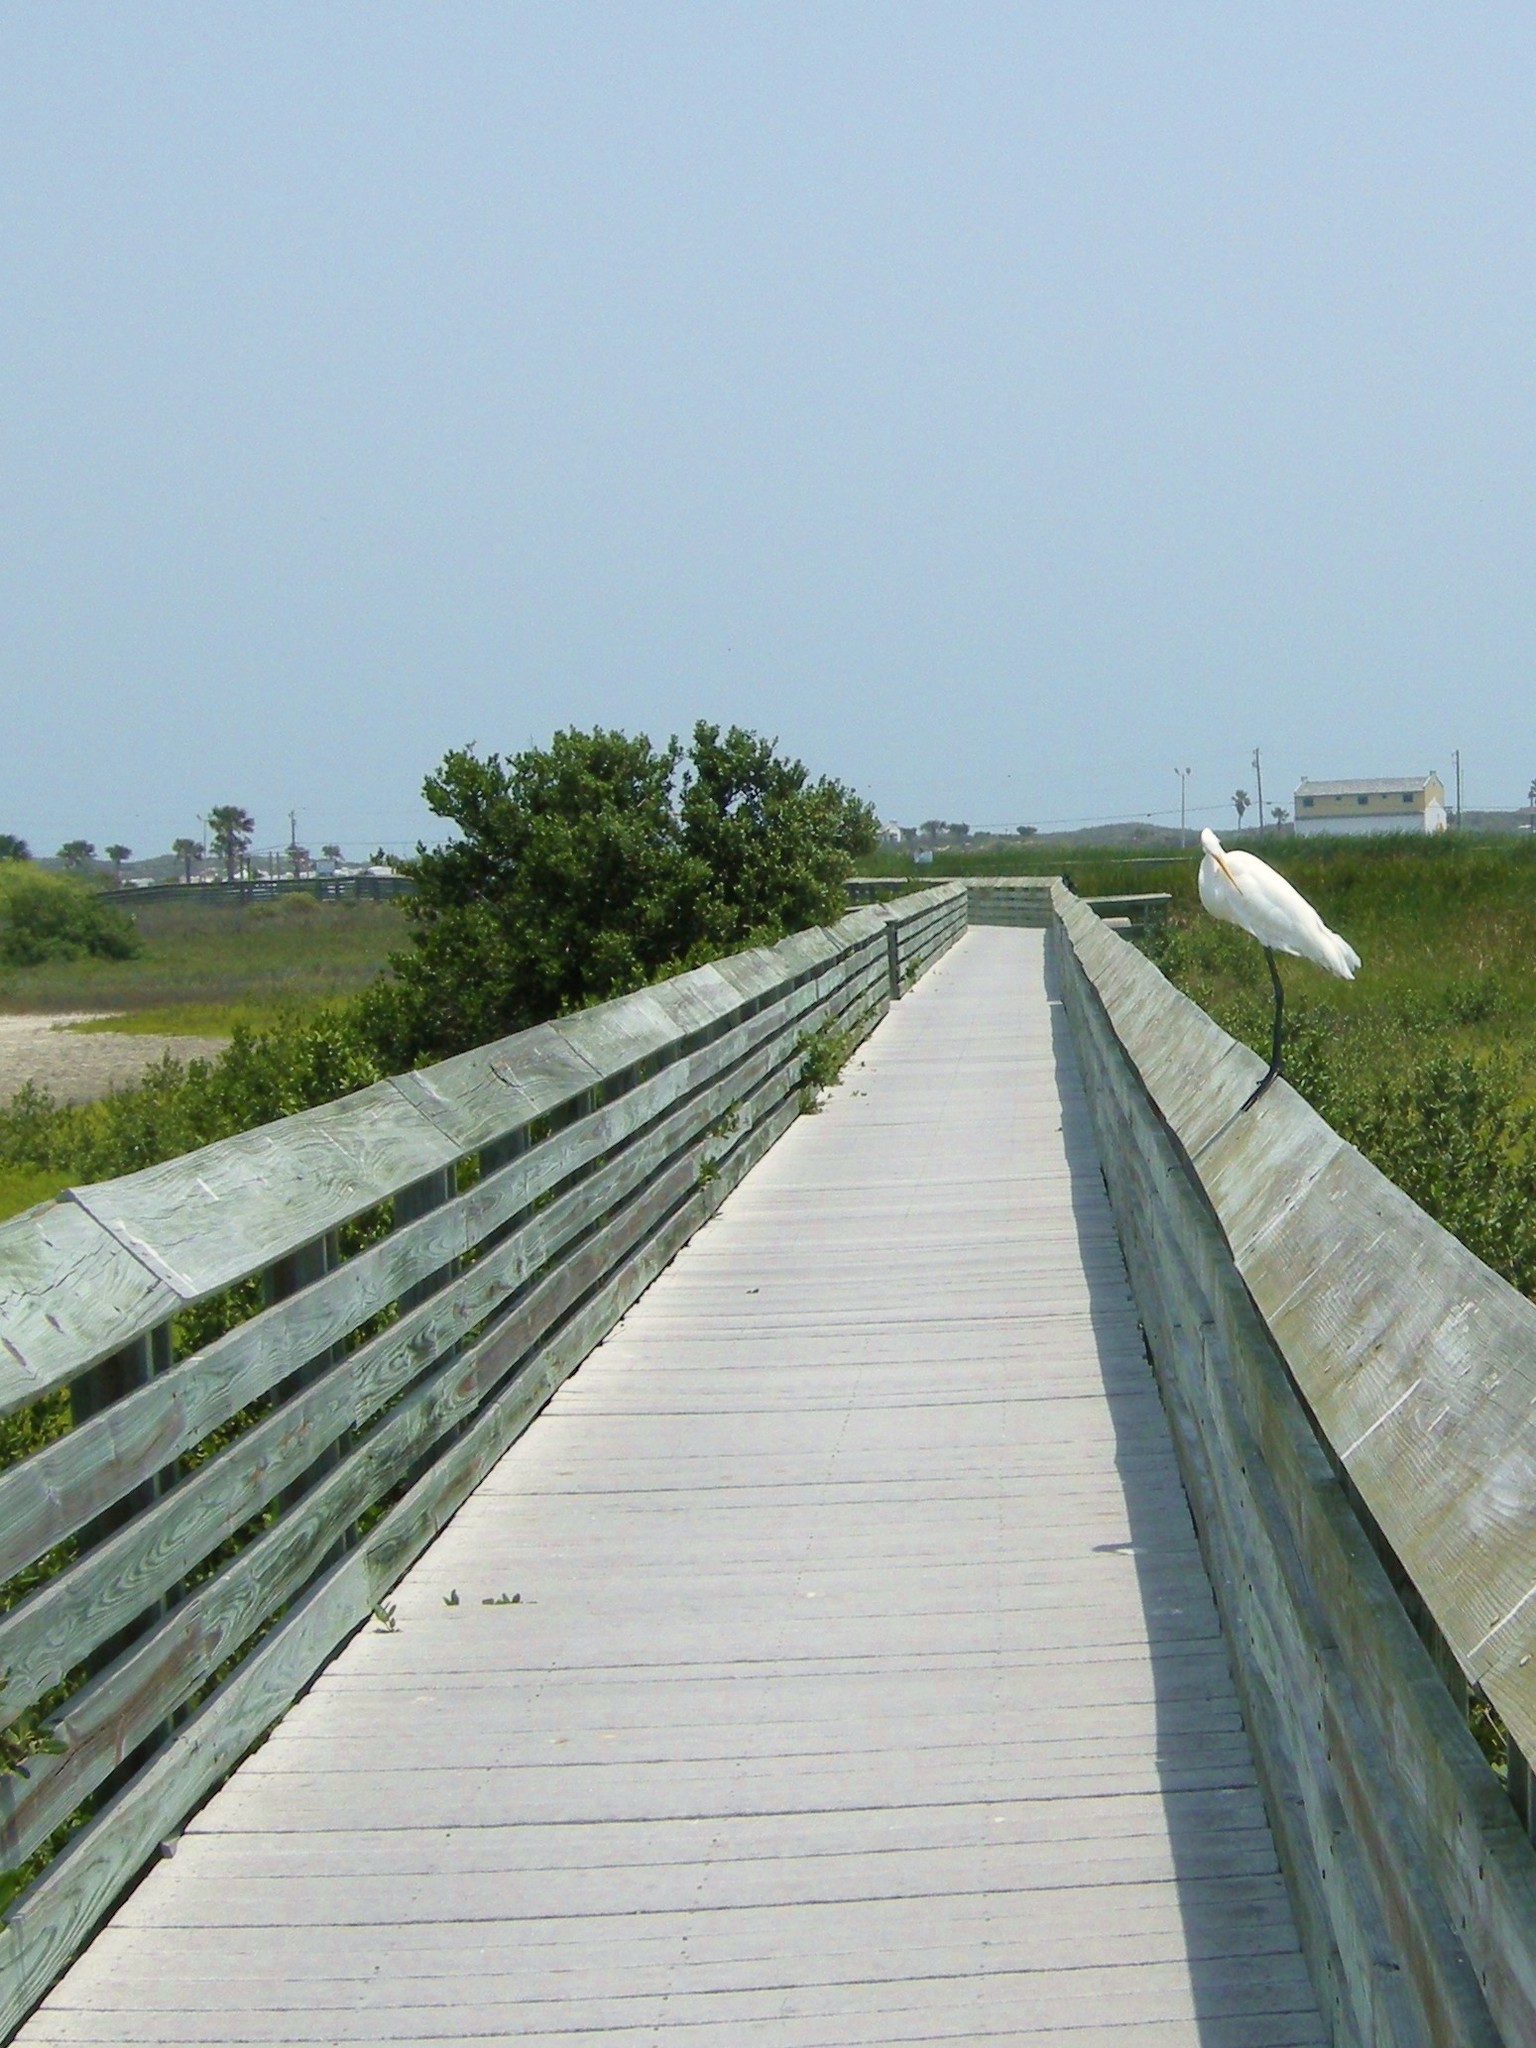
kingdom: Animalia
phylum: Chordata
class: Aves
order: Pelecaniformes
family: Ardeidae
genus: Ardea
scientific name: Ardea alba
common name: Great egret
